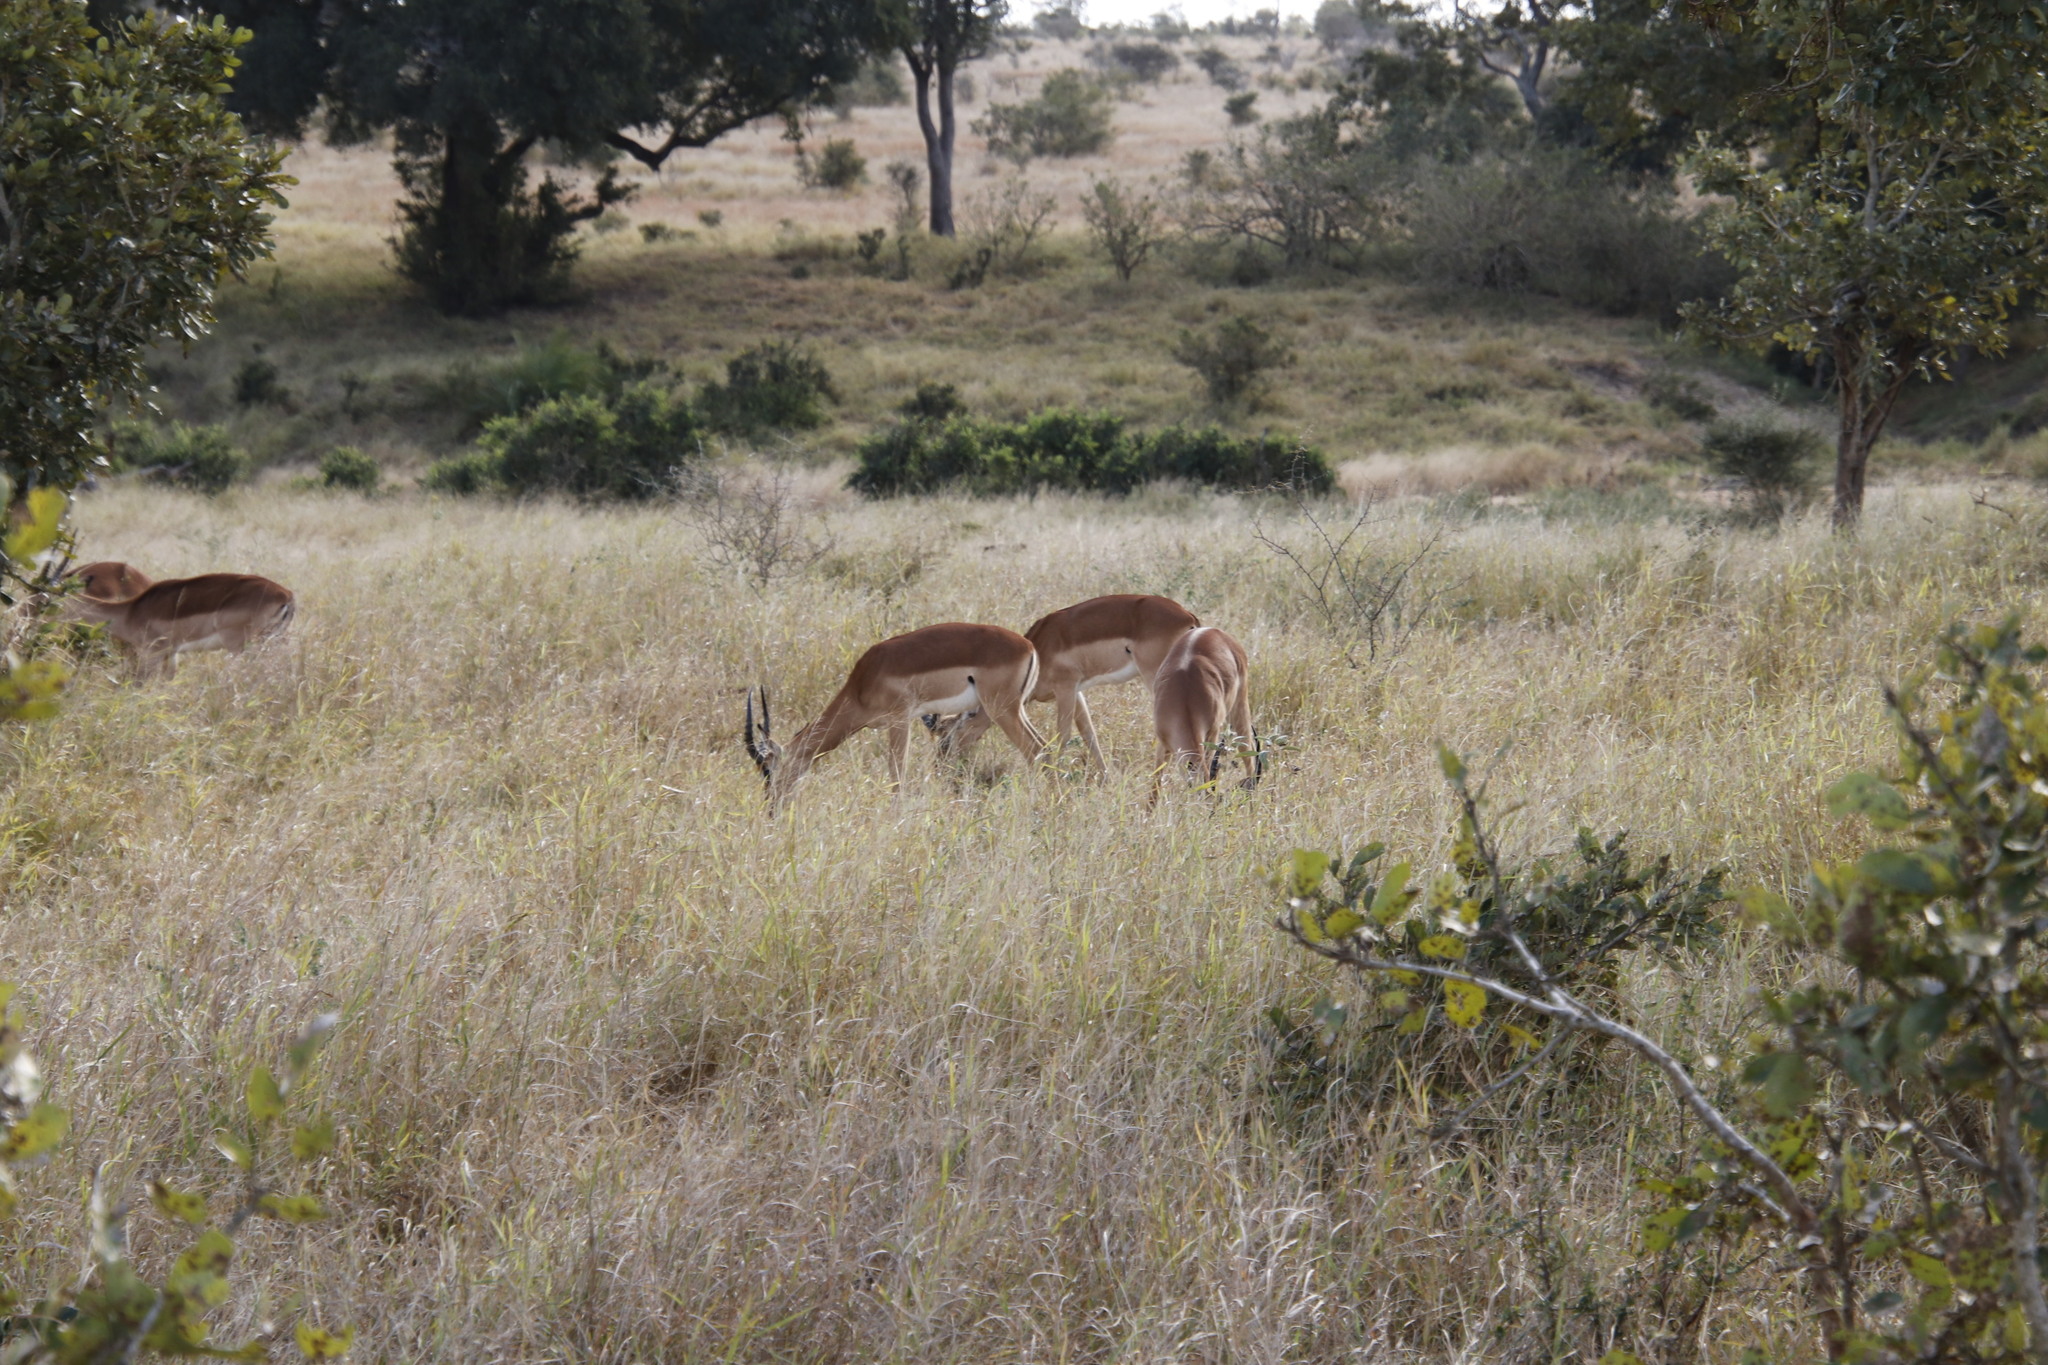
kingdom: Animalia
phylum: Chordata
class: Mammalia
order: Artiodactyla
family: Bovidae
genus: Aepyceros
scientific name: Aepyceros melampus
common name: Impala
